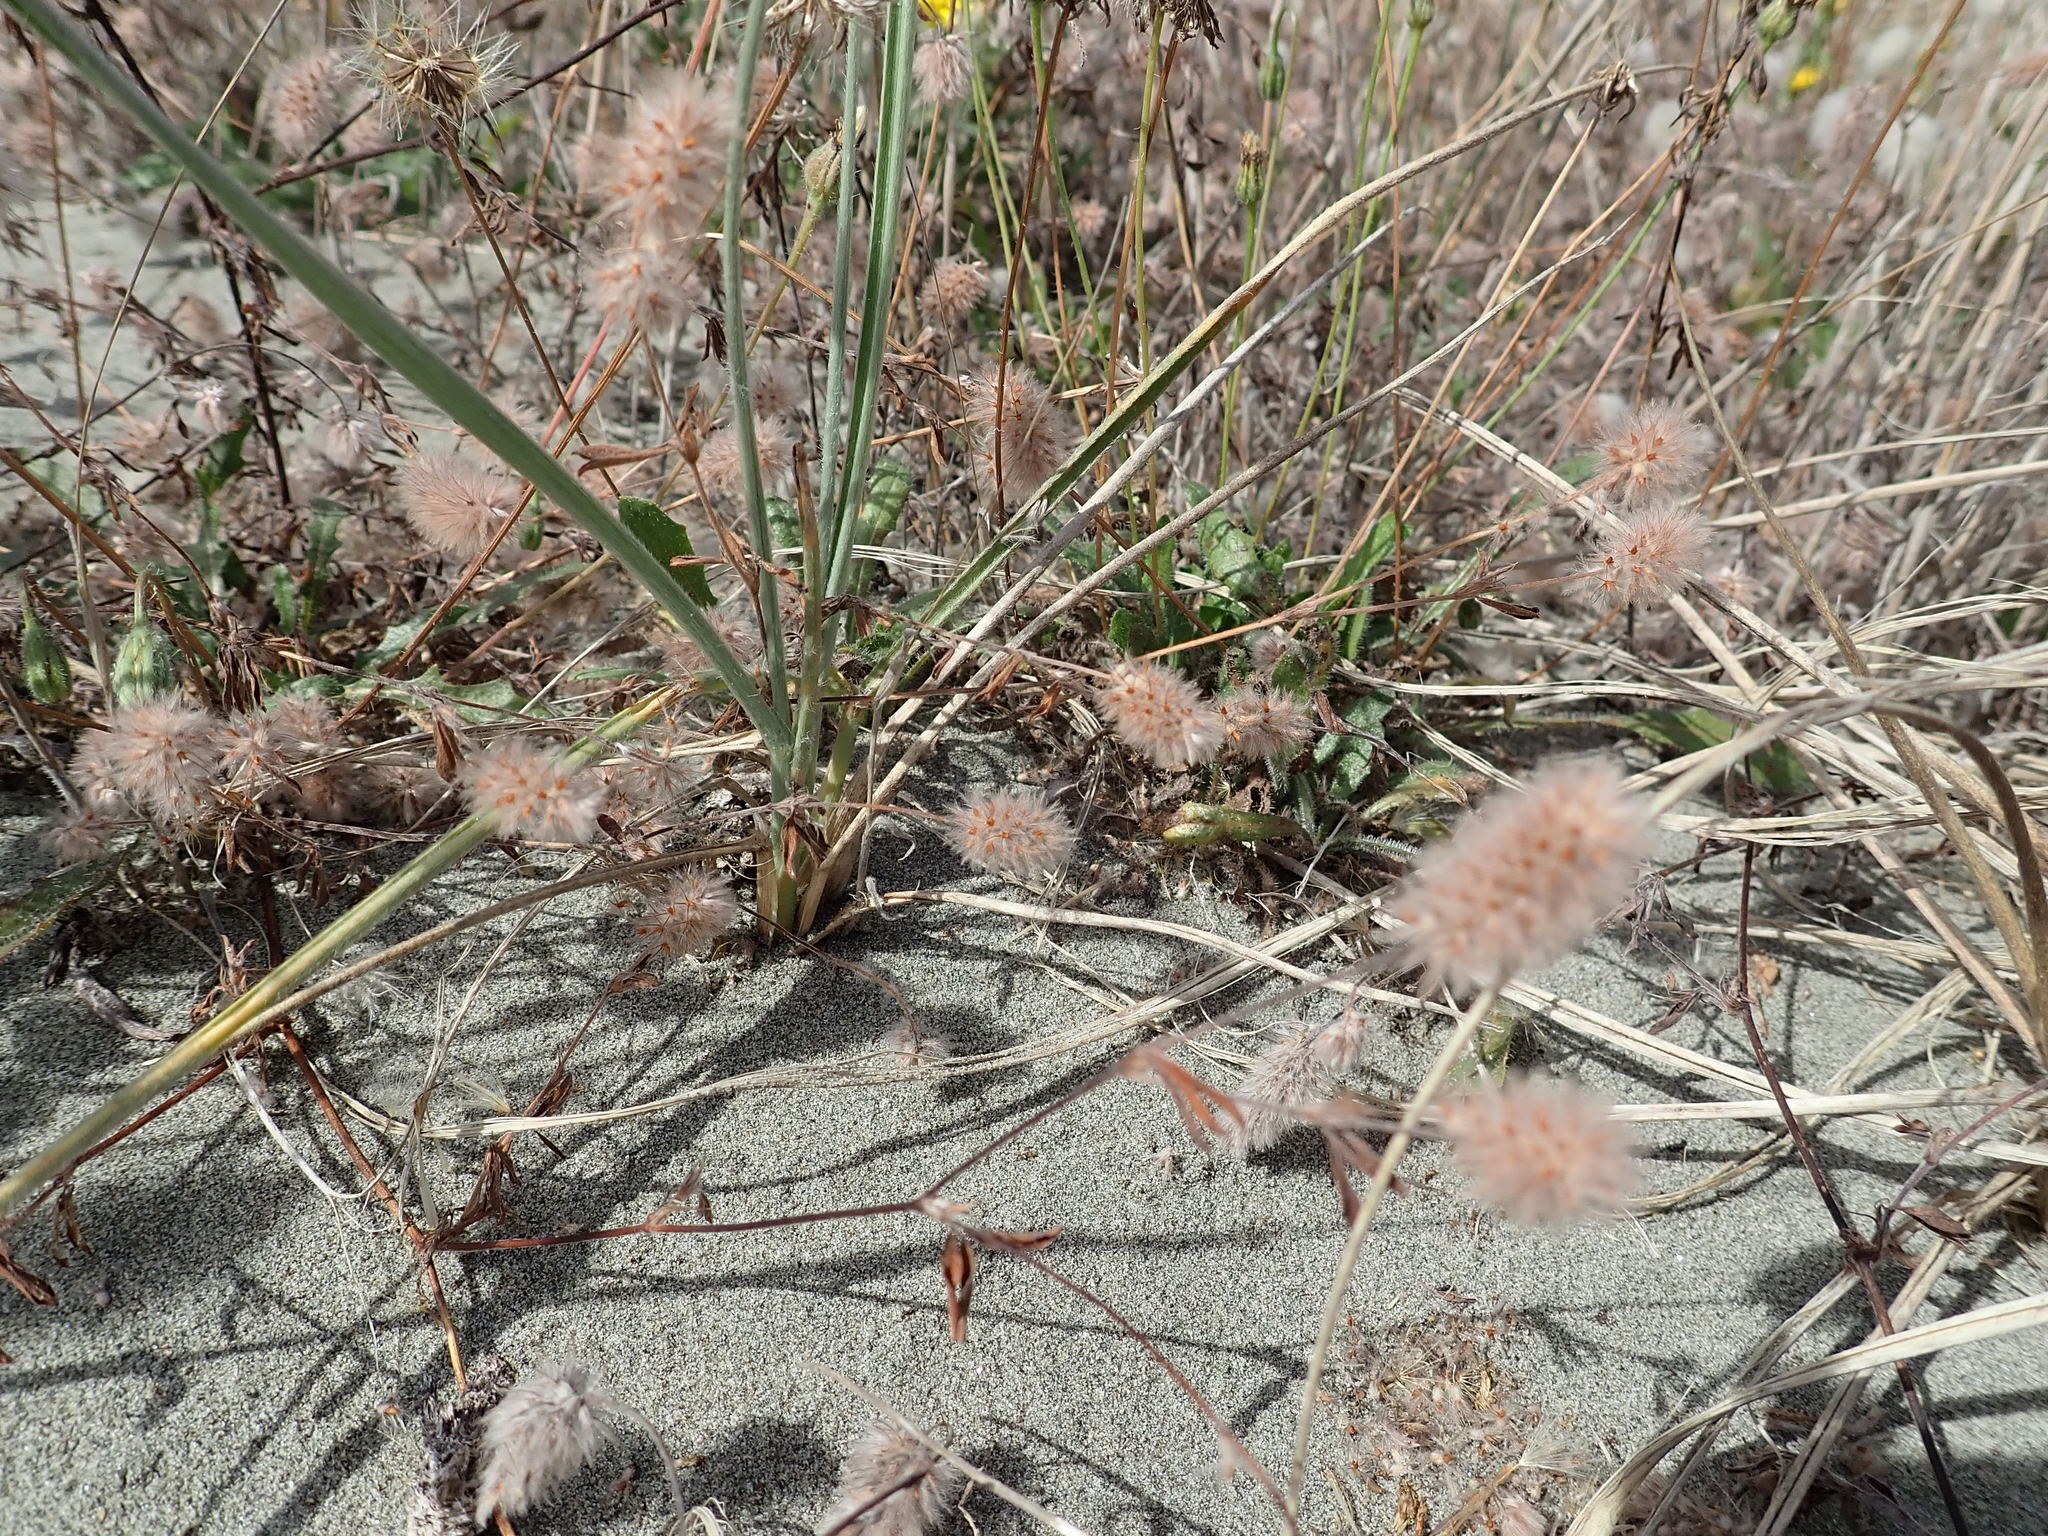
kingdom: Plantae
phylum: Tracheophyta
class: Magnoliopsida
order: Fabales
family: Fabaceae
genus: Trifolium
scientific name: Trifolium arvense
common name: Hare's-foot clover
